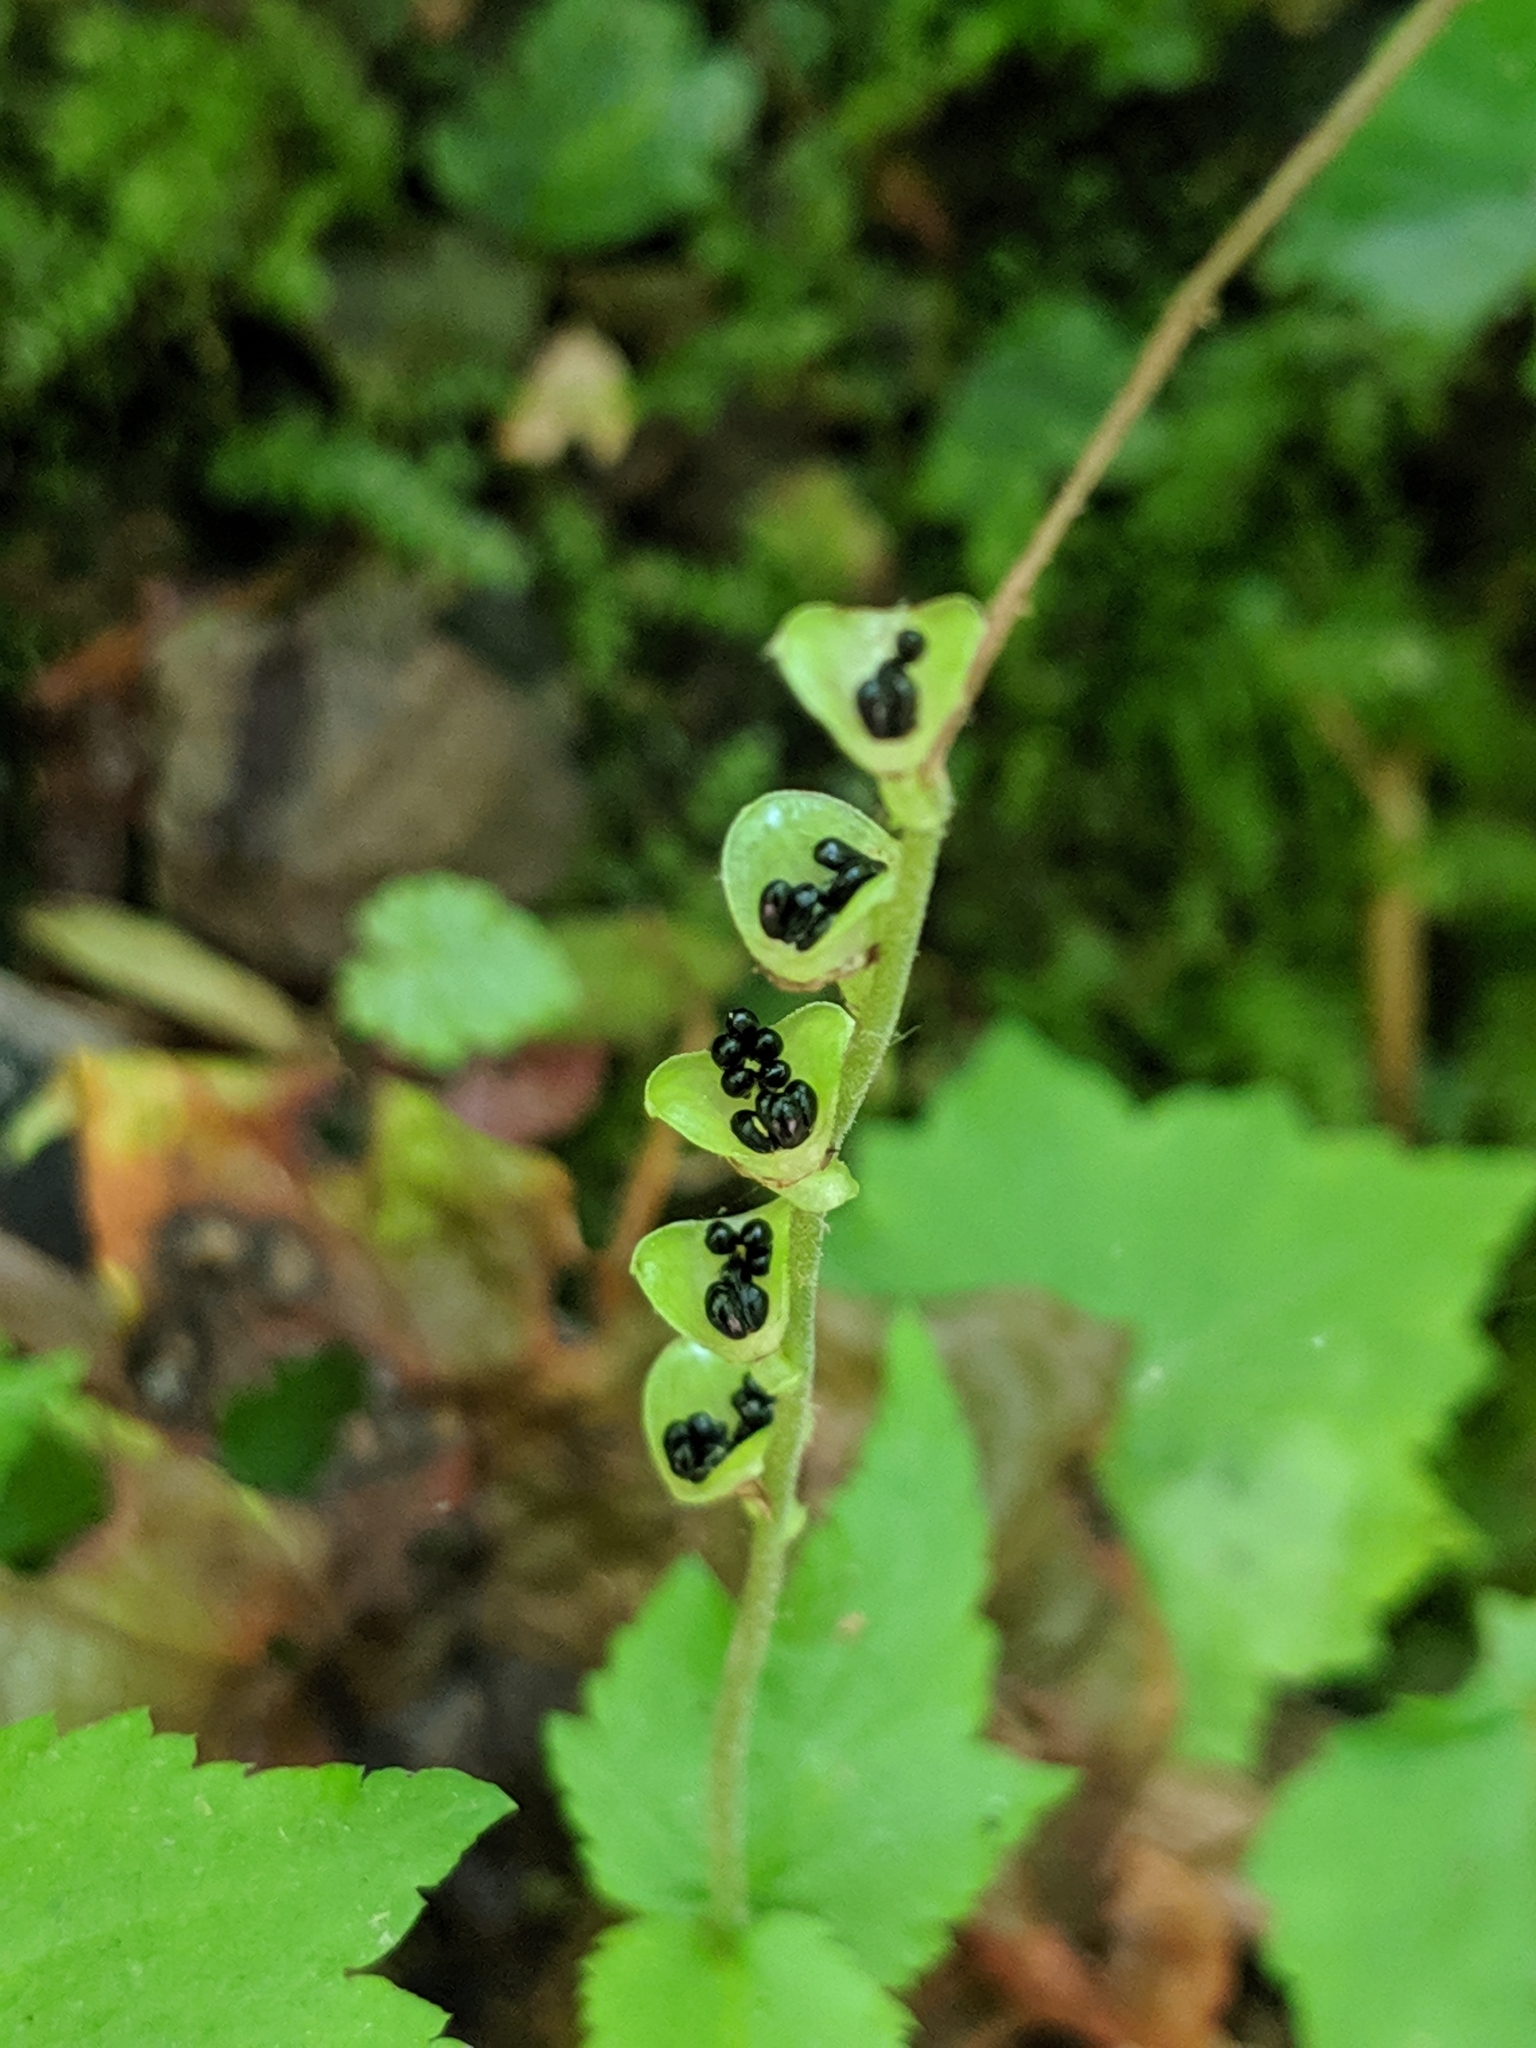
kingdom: Plantae
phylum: Tracheophyta
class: Magnoliopsida
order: Saxifragales
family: Saxifragaceae
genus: Mitella
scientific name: Mitella diphylla
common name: Coolwort
